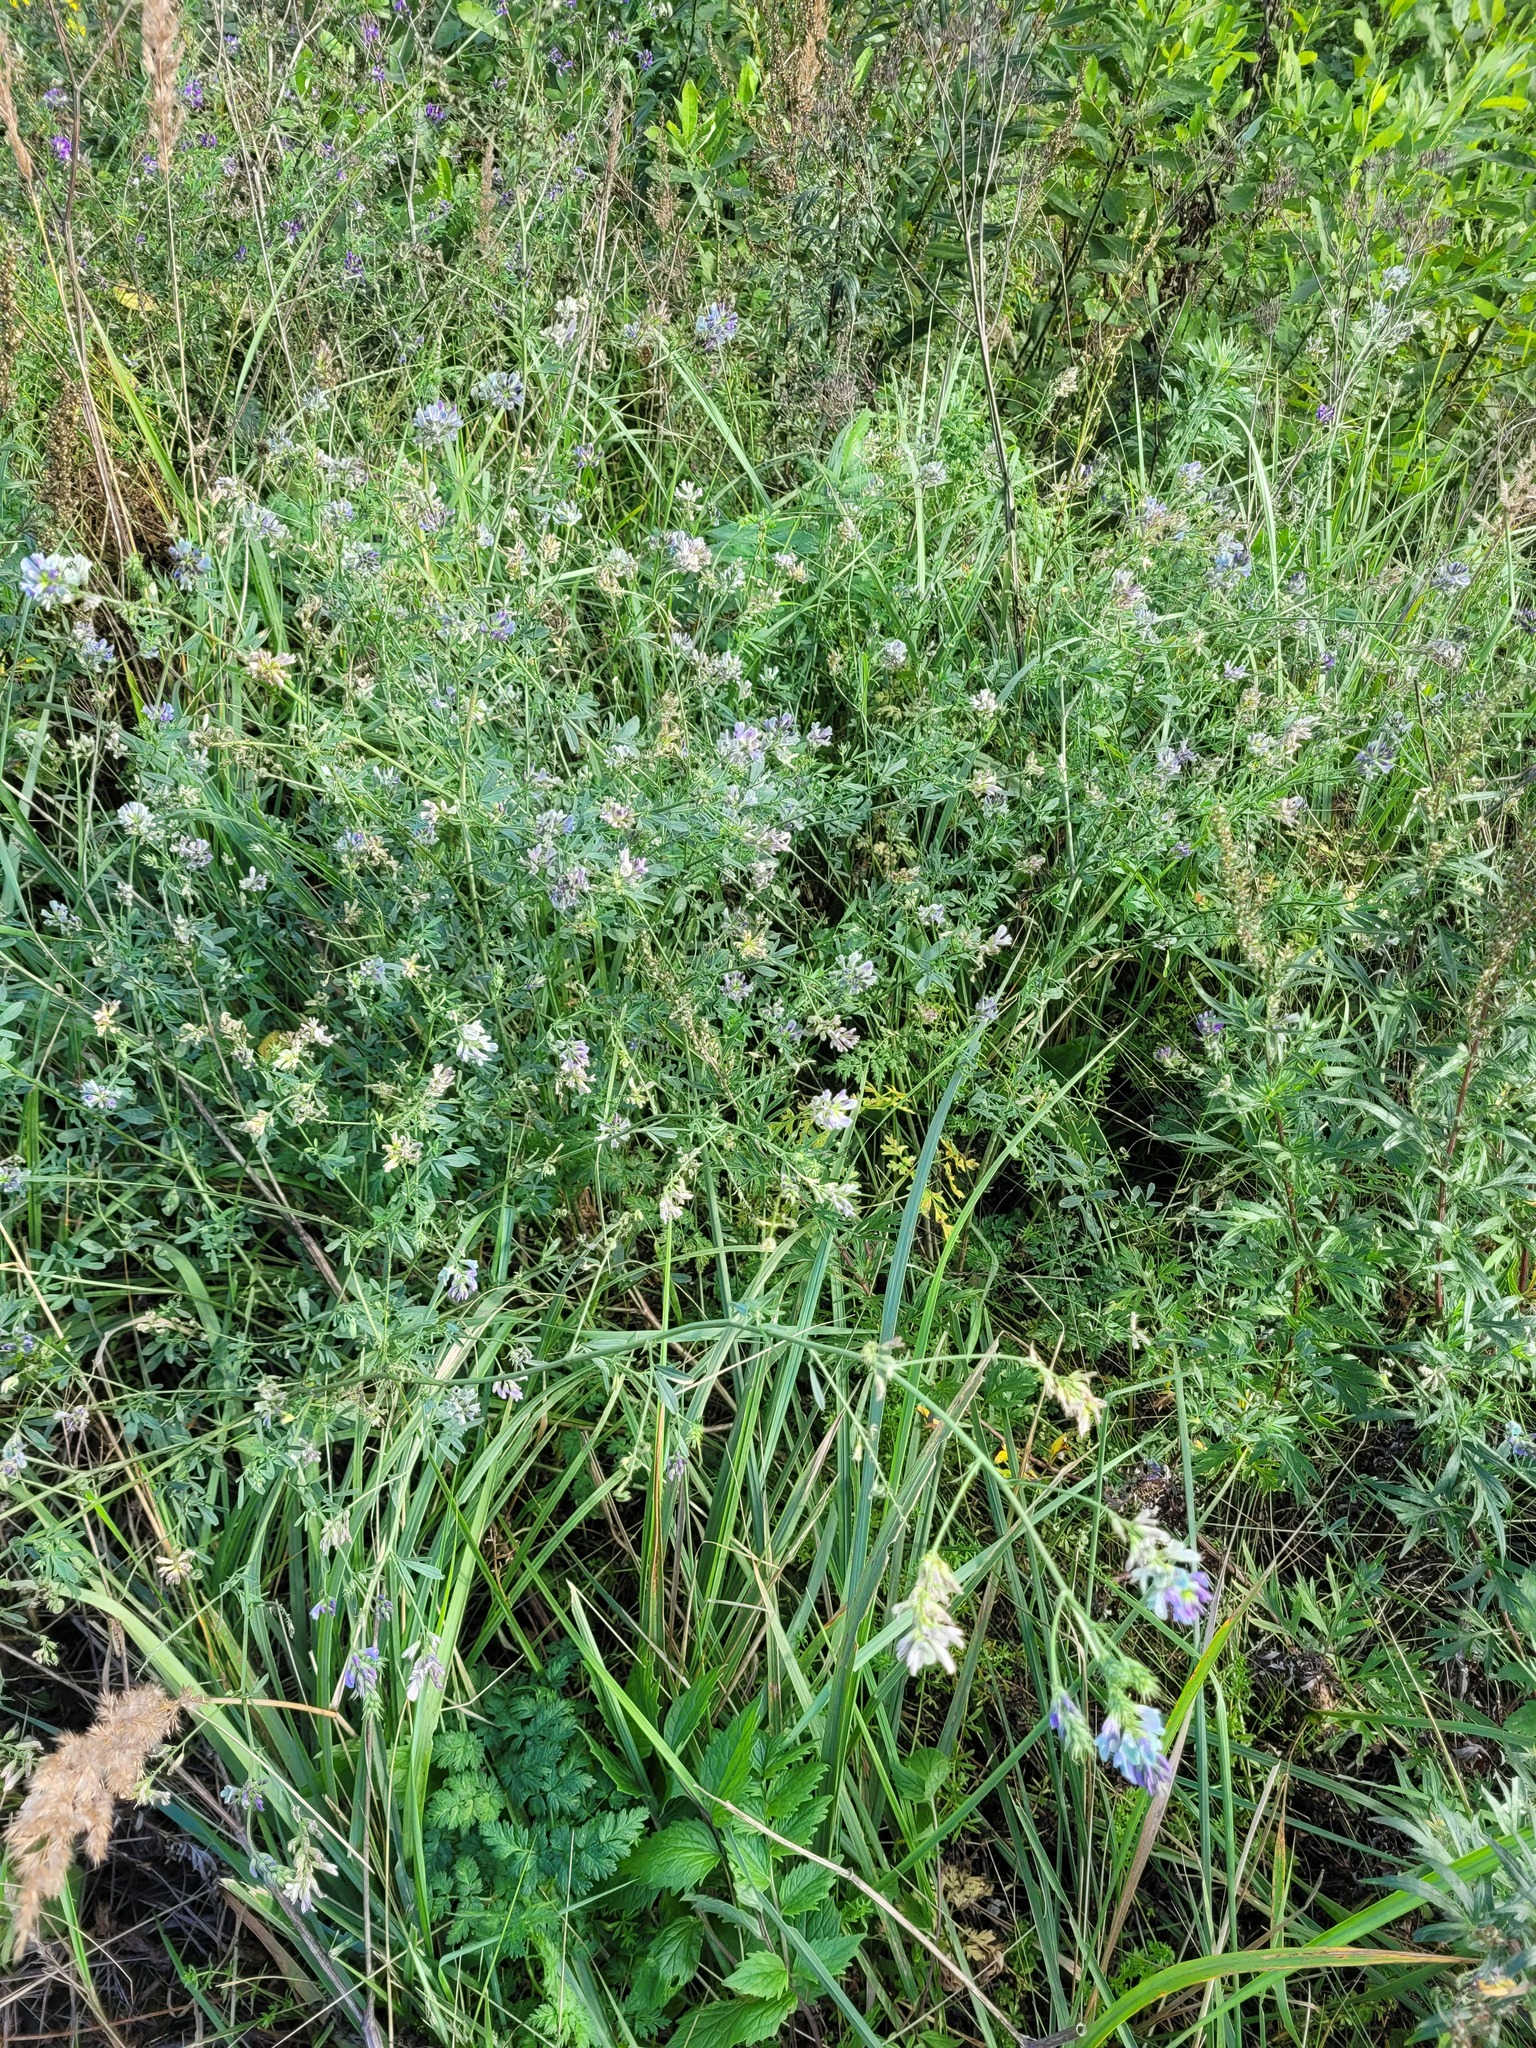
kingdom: Plantae
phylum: Tracheophyta
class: Magnoliopsida
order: Fabales
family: Fabaceae
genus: Medicago
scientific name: Medicago varia
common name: Sand lucerne
